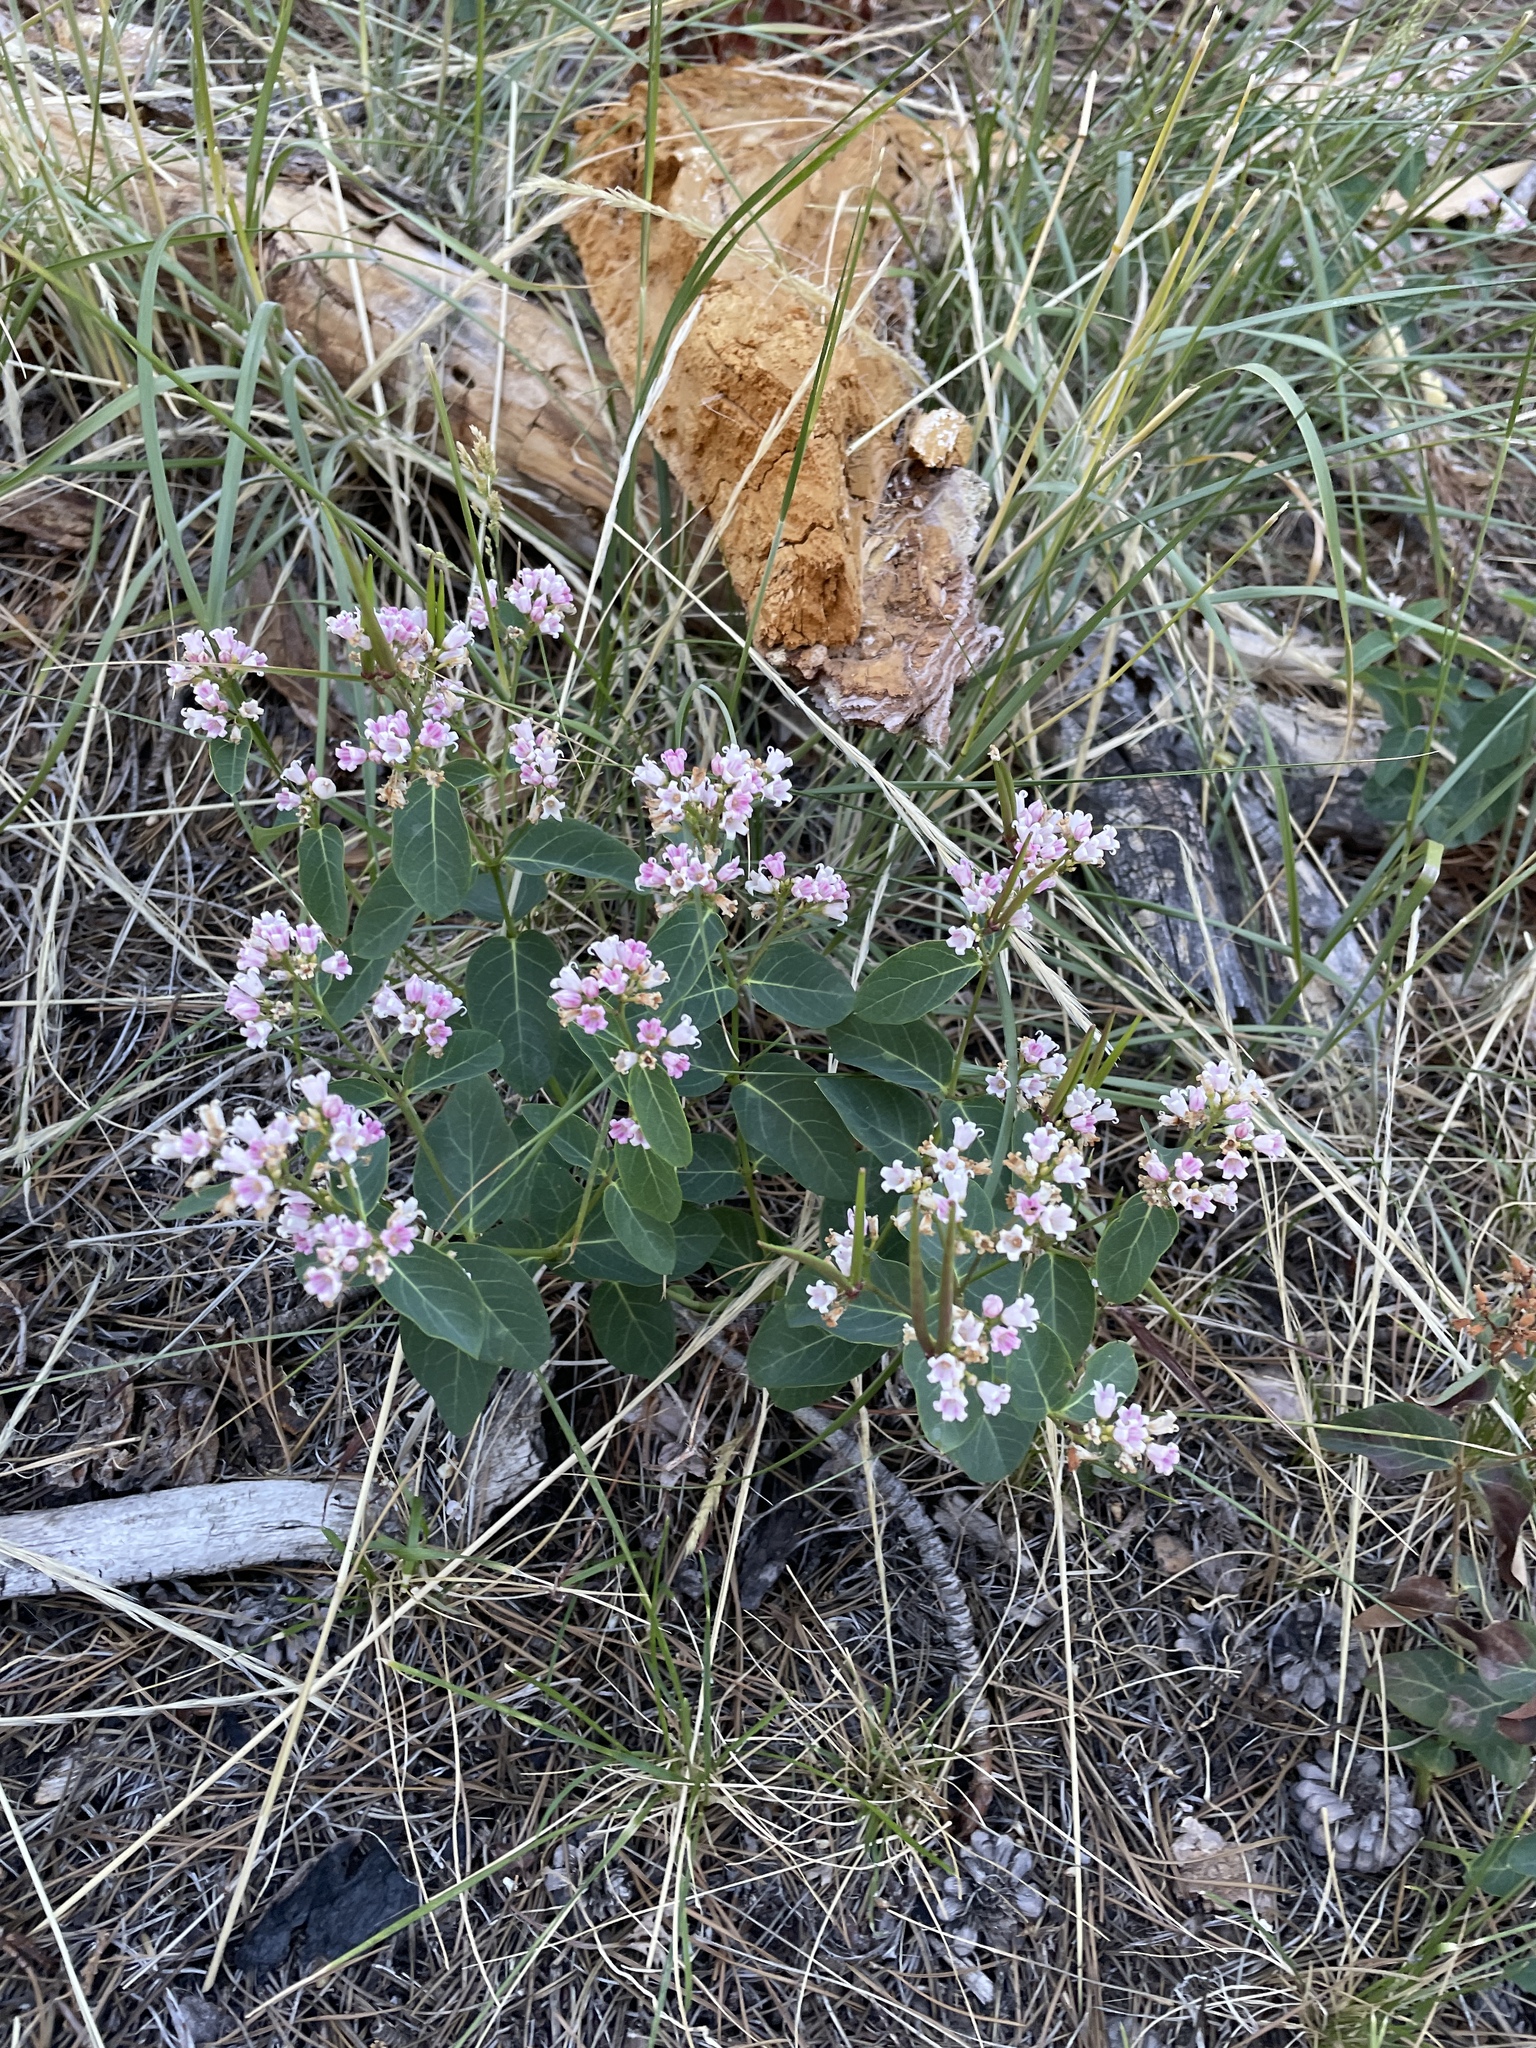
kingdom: Plantae
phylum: Tracheophyta
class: Magnoliopsida
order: Gentianales
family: Apocynaceae
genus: Apocynum
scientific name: Apocynum androsaemifolium
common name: Spreading dogbane
